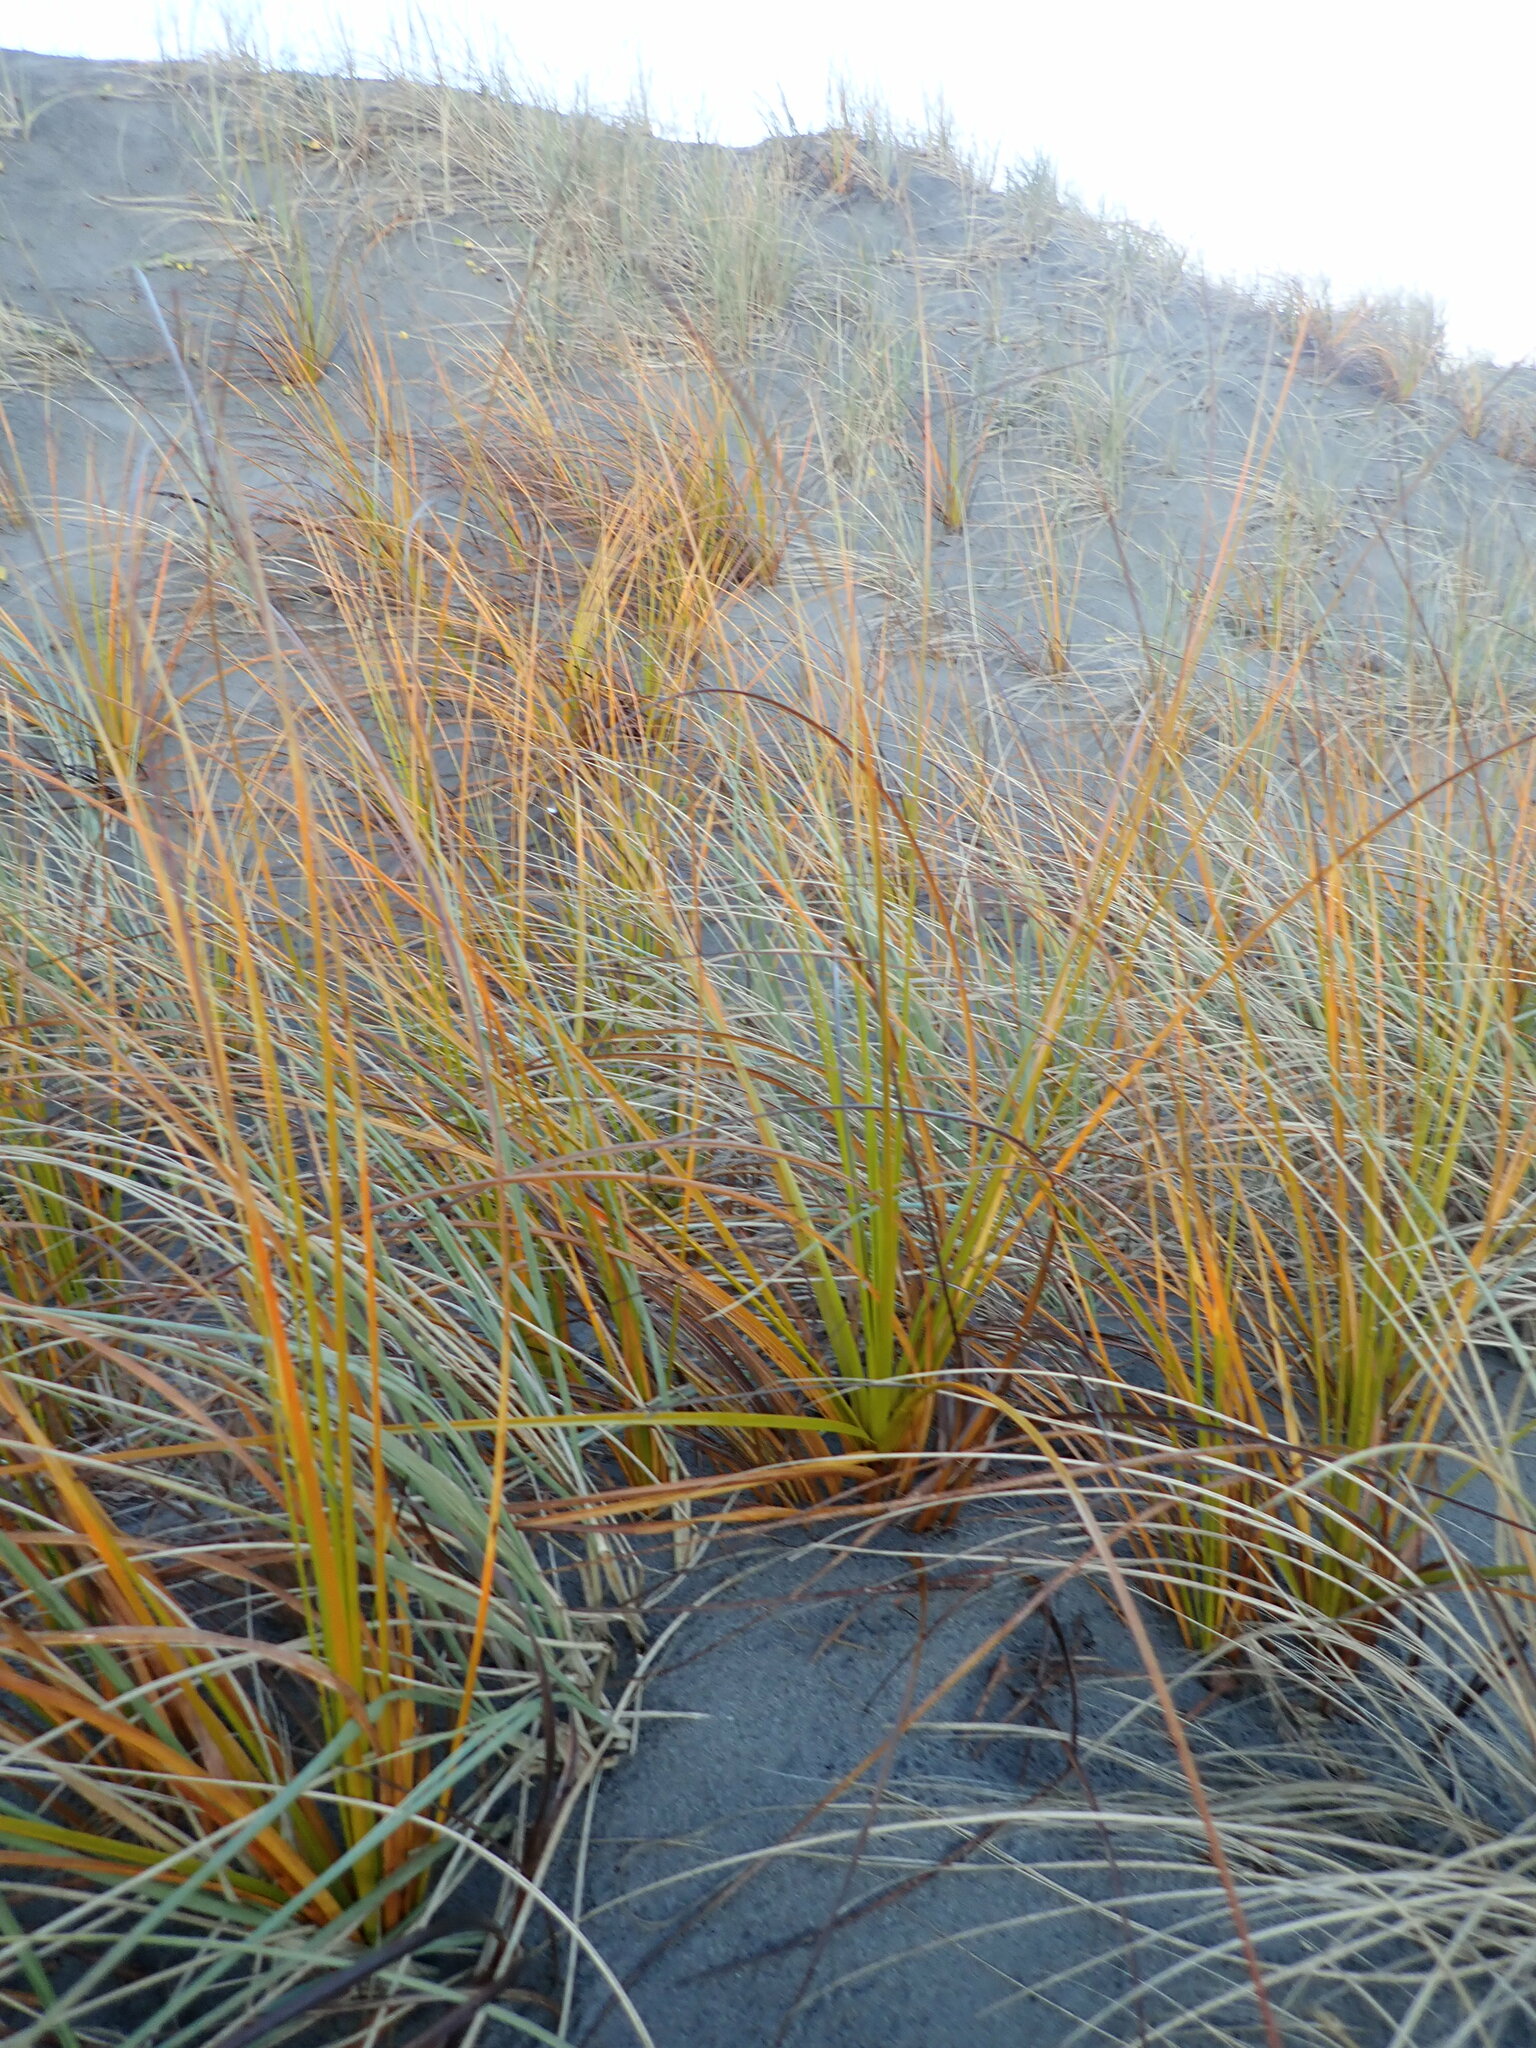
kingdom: Plantae
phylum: Tracheophyta
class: Liliopsida
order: Poales
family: Cyperaceae
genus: Ficinia
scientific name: Ficinia spiralis
